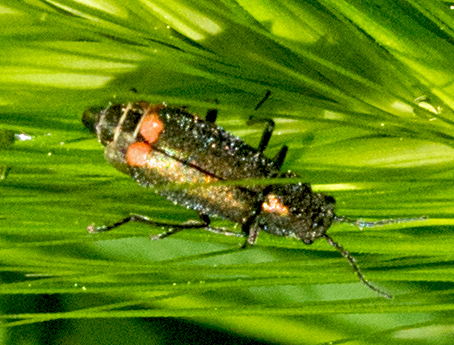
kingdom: Animalia
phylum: Arthropoda
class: Insecta
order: Coleoptera
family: Melyridae
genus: Malachius
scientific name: Malachius bipustulatus
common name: Malachite beetle
